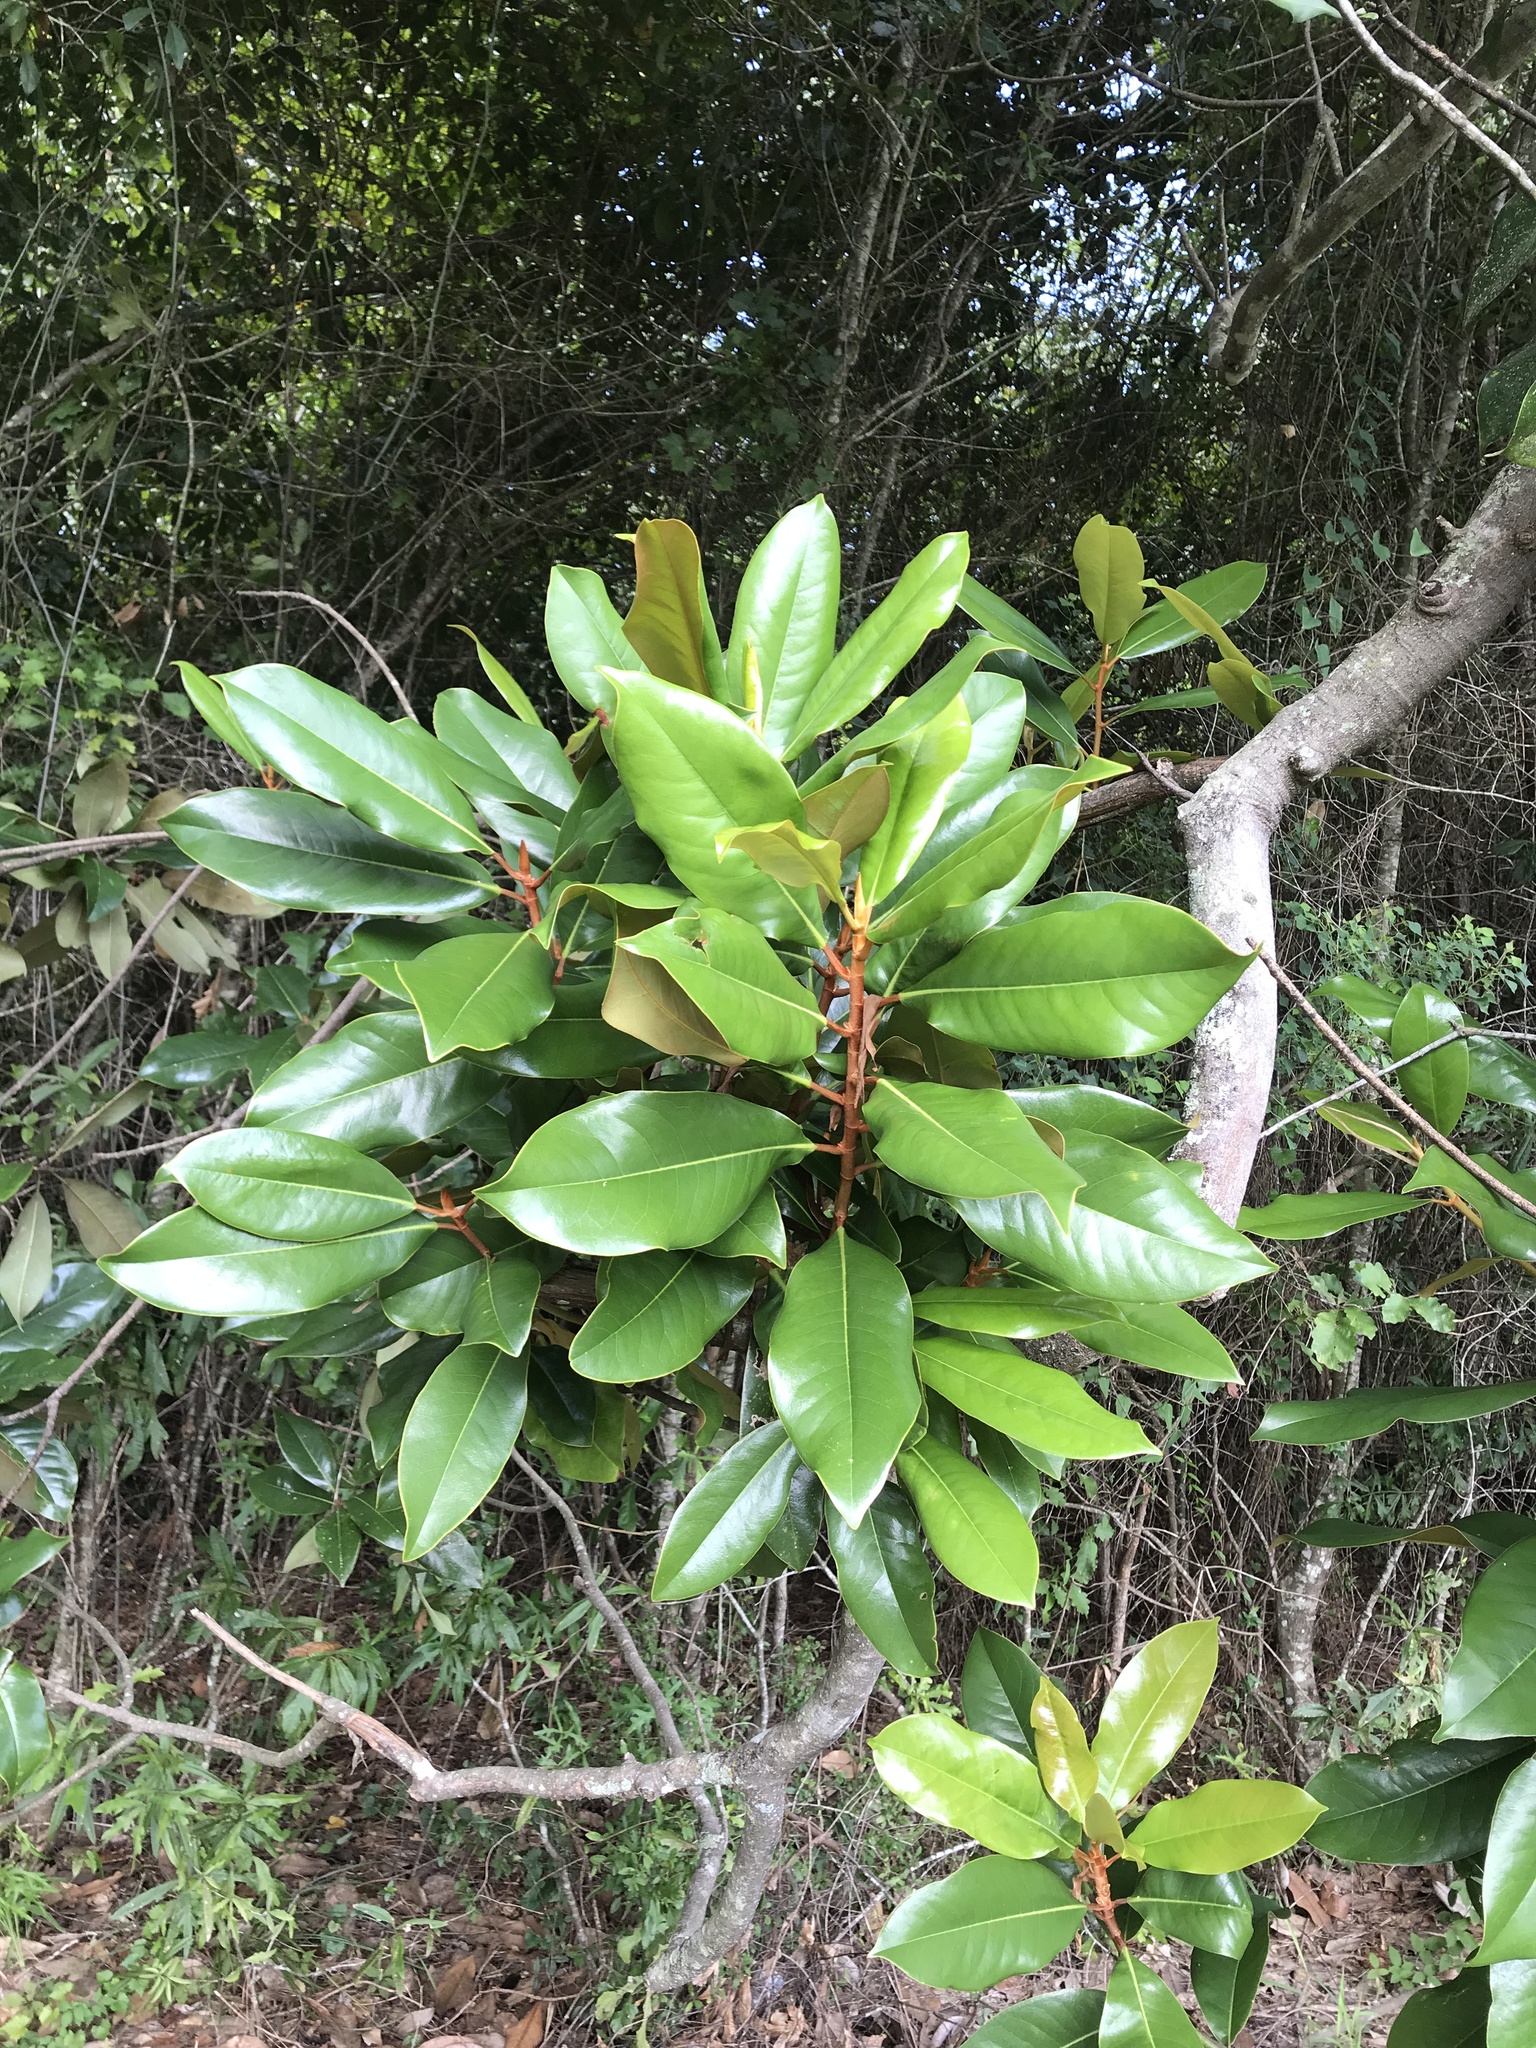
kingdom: Plantae
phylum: Tracheophyta
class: Magnoliopsida
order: Magnoliales
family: Magnoliaceae
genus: Magnolia
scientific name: Magnolia grandiflora
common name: Southern magnolia
